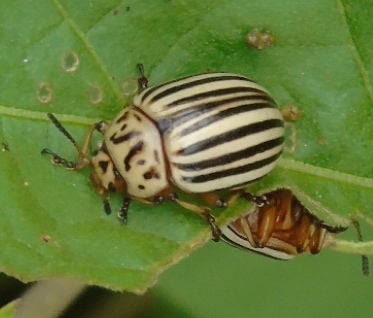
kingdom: Animalia
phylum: Arthropoda
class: Insecta
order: Coleoptera
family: Chrysomelidae
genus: Leptinotarsa
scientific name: Leptinotarsa decemlineata
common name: Colorado potato beetle
